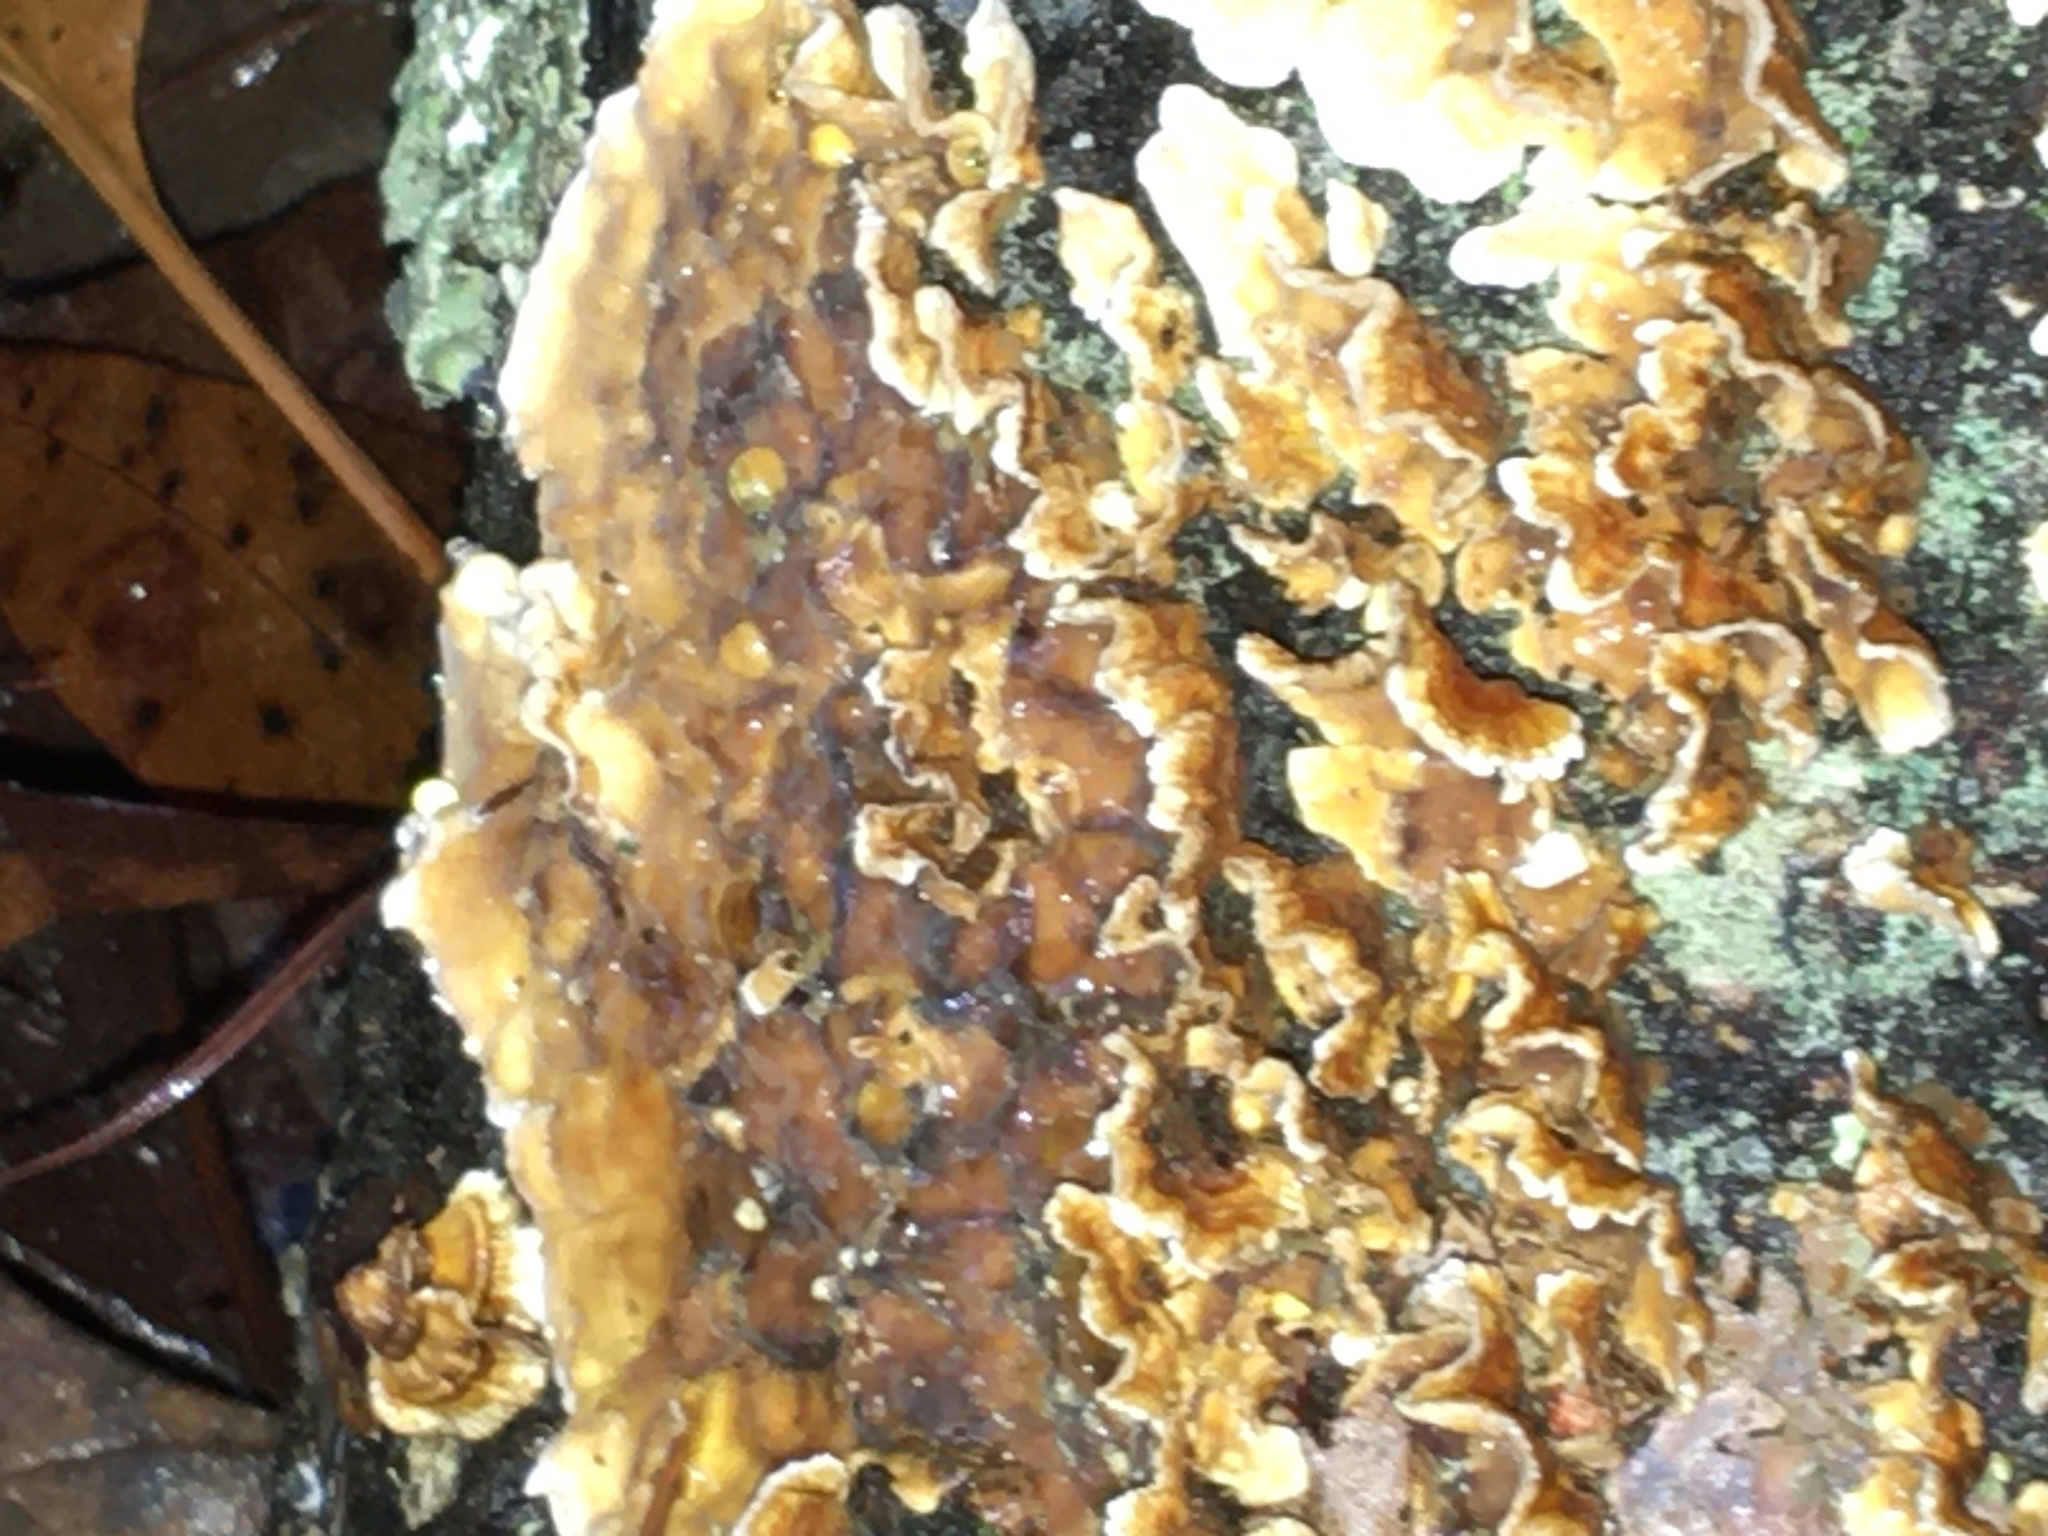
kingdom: Fungi
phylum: Basidiomycota
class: Agaricomycetes
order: Russulales
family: Stereaceae
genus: Stereum
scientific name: Stereum complicatum
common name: Crowded parchment
